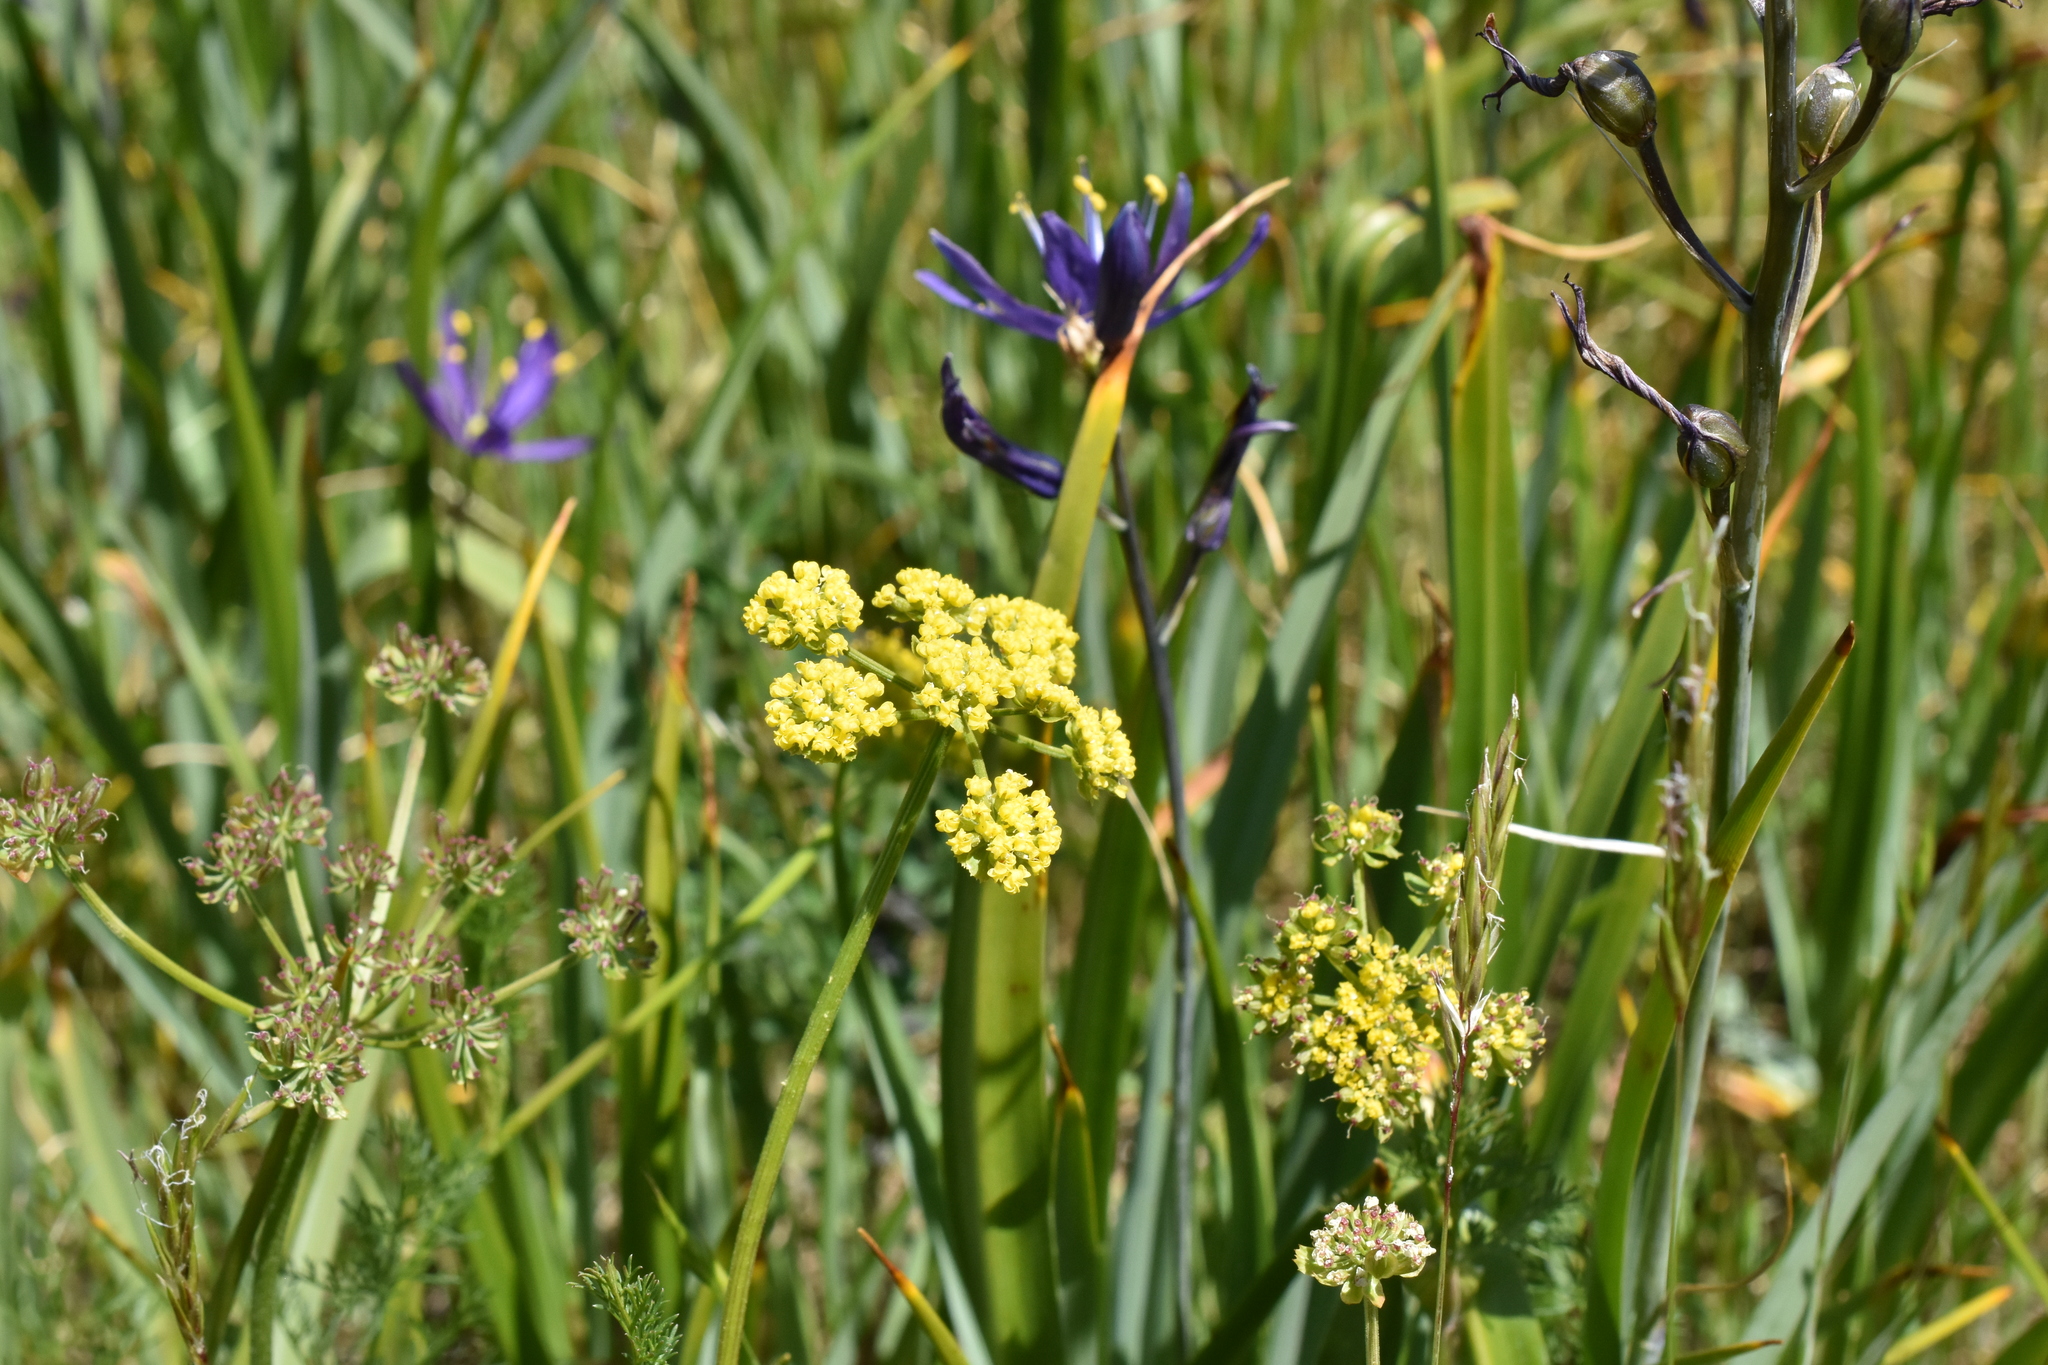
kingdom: Plantae
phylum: Tracheophyta
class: Magnoliopsida
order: Apiales
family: Apiaceae
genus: Lomatium
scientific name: Lomatium utriculatum
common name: Fine-leaf desert-parsley
